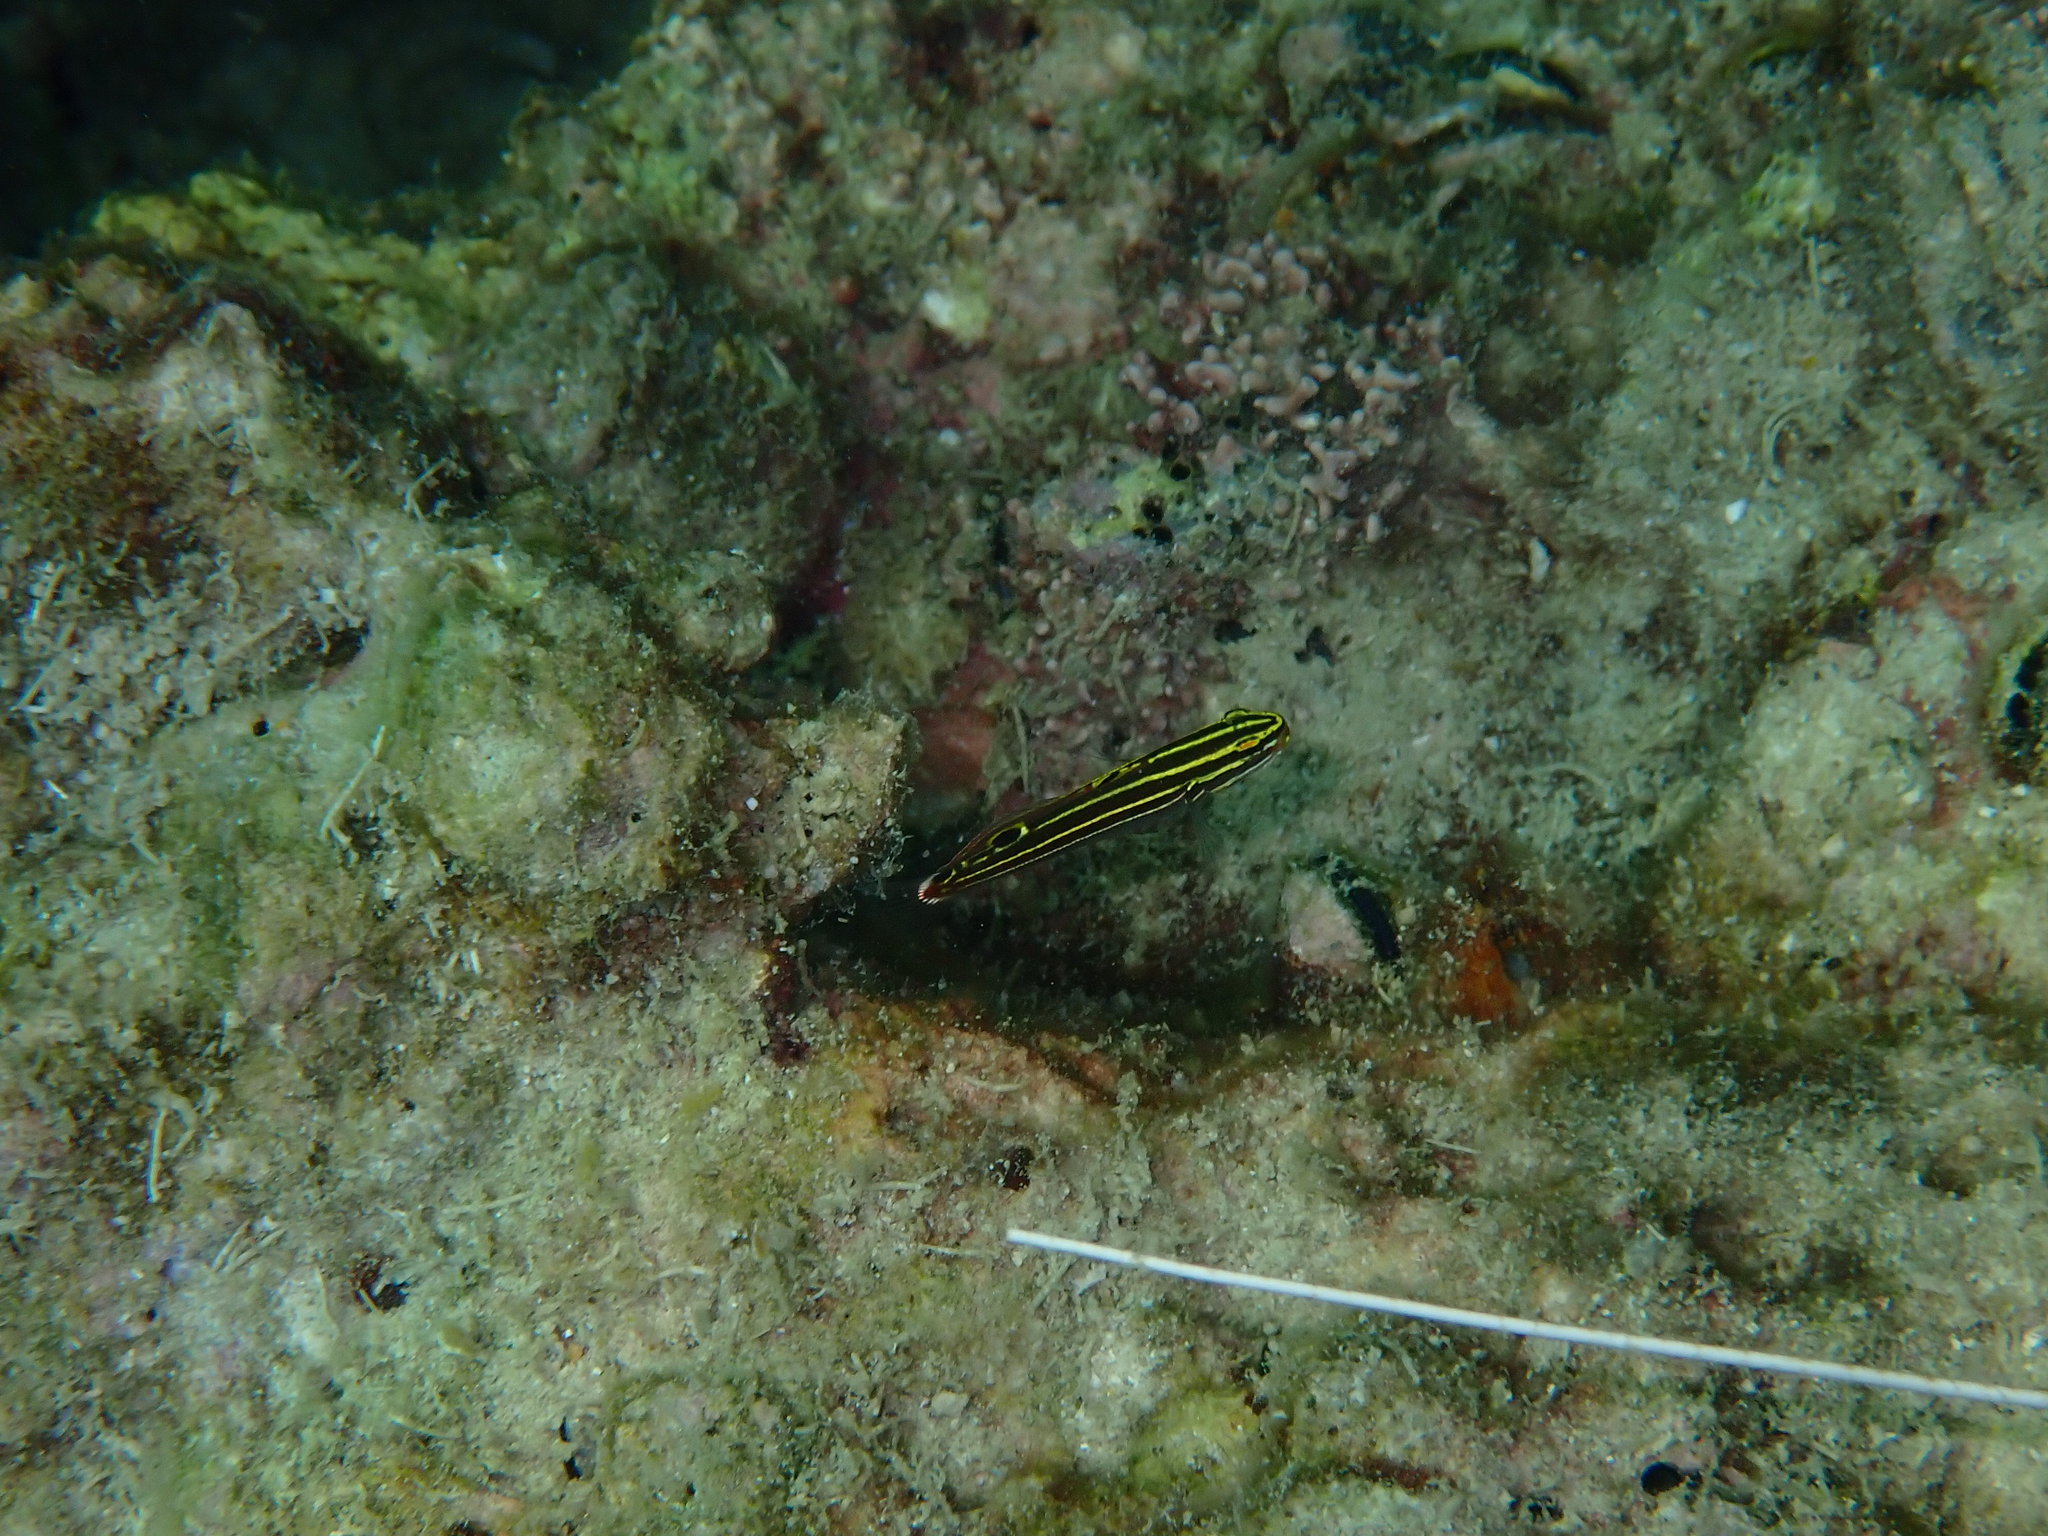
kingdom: Animalia
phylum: Chordata
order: Perciformes
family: Gobiidae
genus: Koumansetta
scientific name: Koumansetta hectori
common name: Hector's goby
